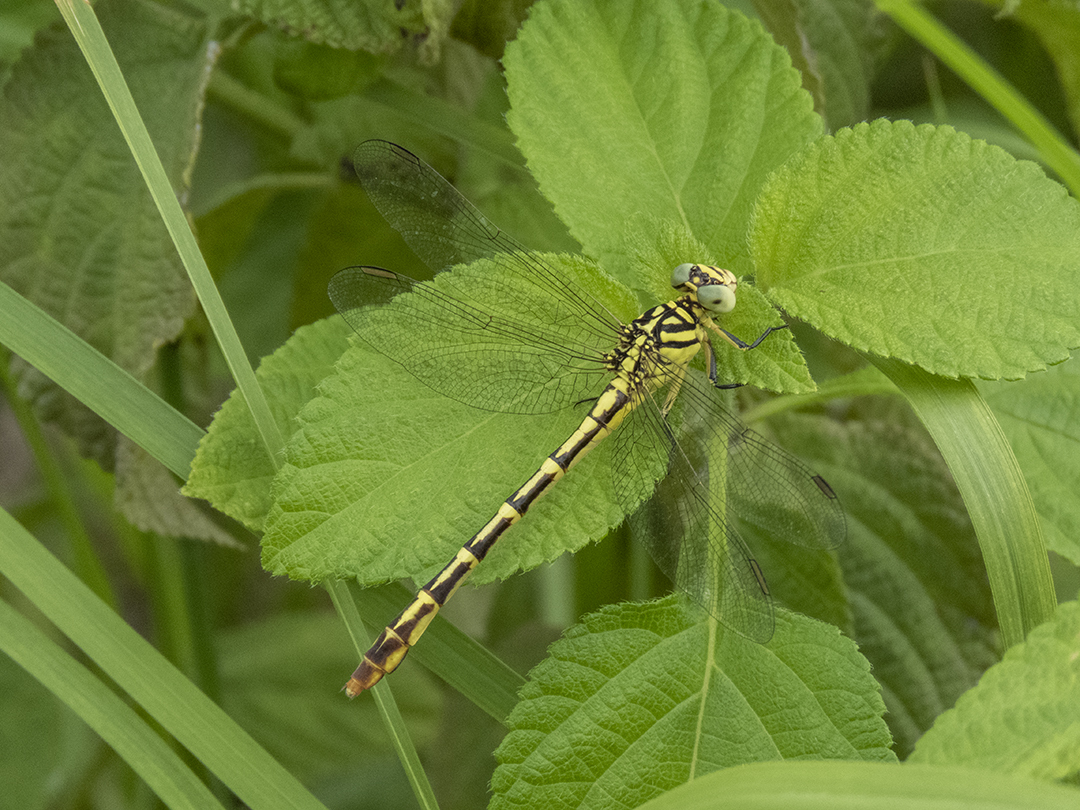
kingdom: Animalia
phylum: Arthropoda
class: Insecta
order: Odonata
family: Gomphidae
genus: Platygomphus
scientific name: Platygomphus dolabratus
